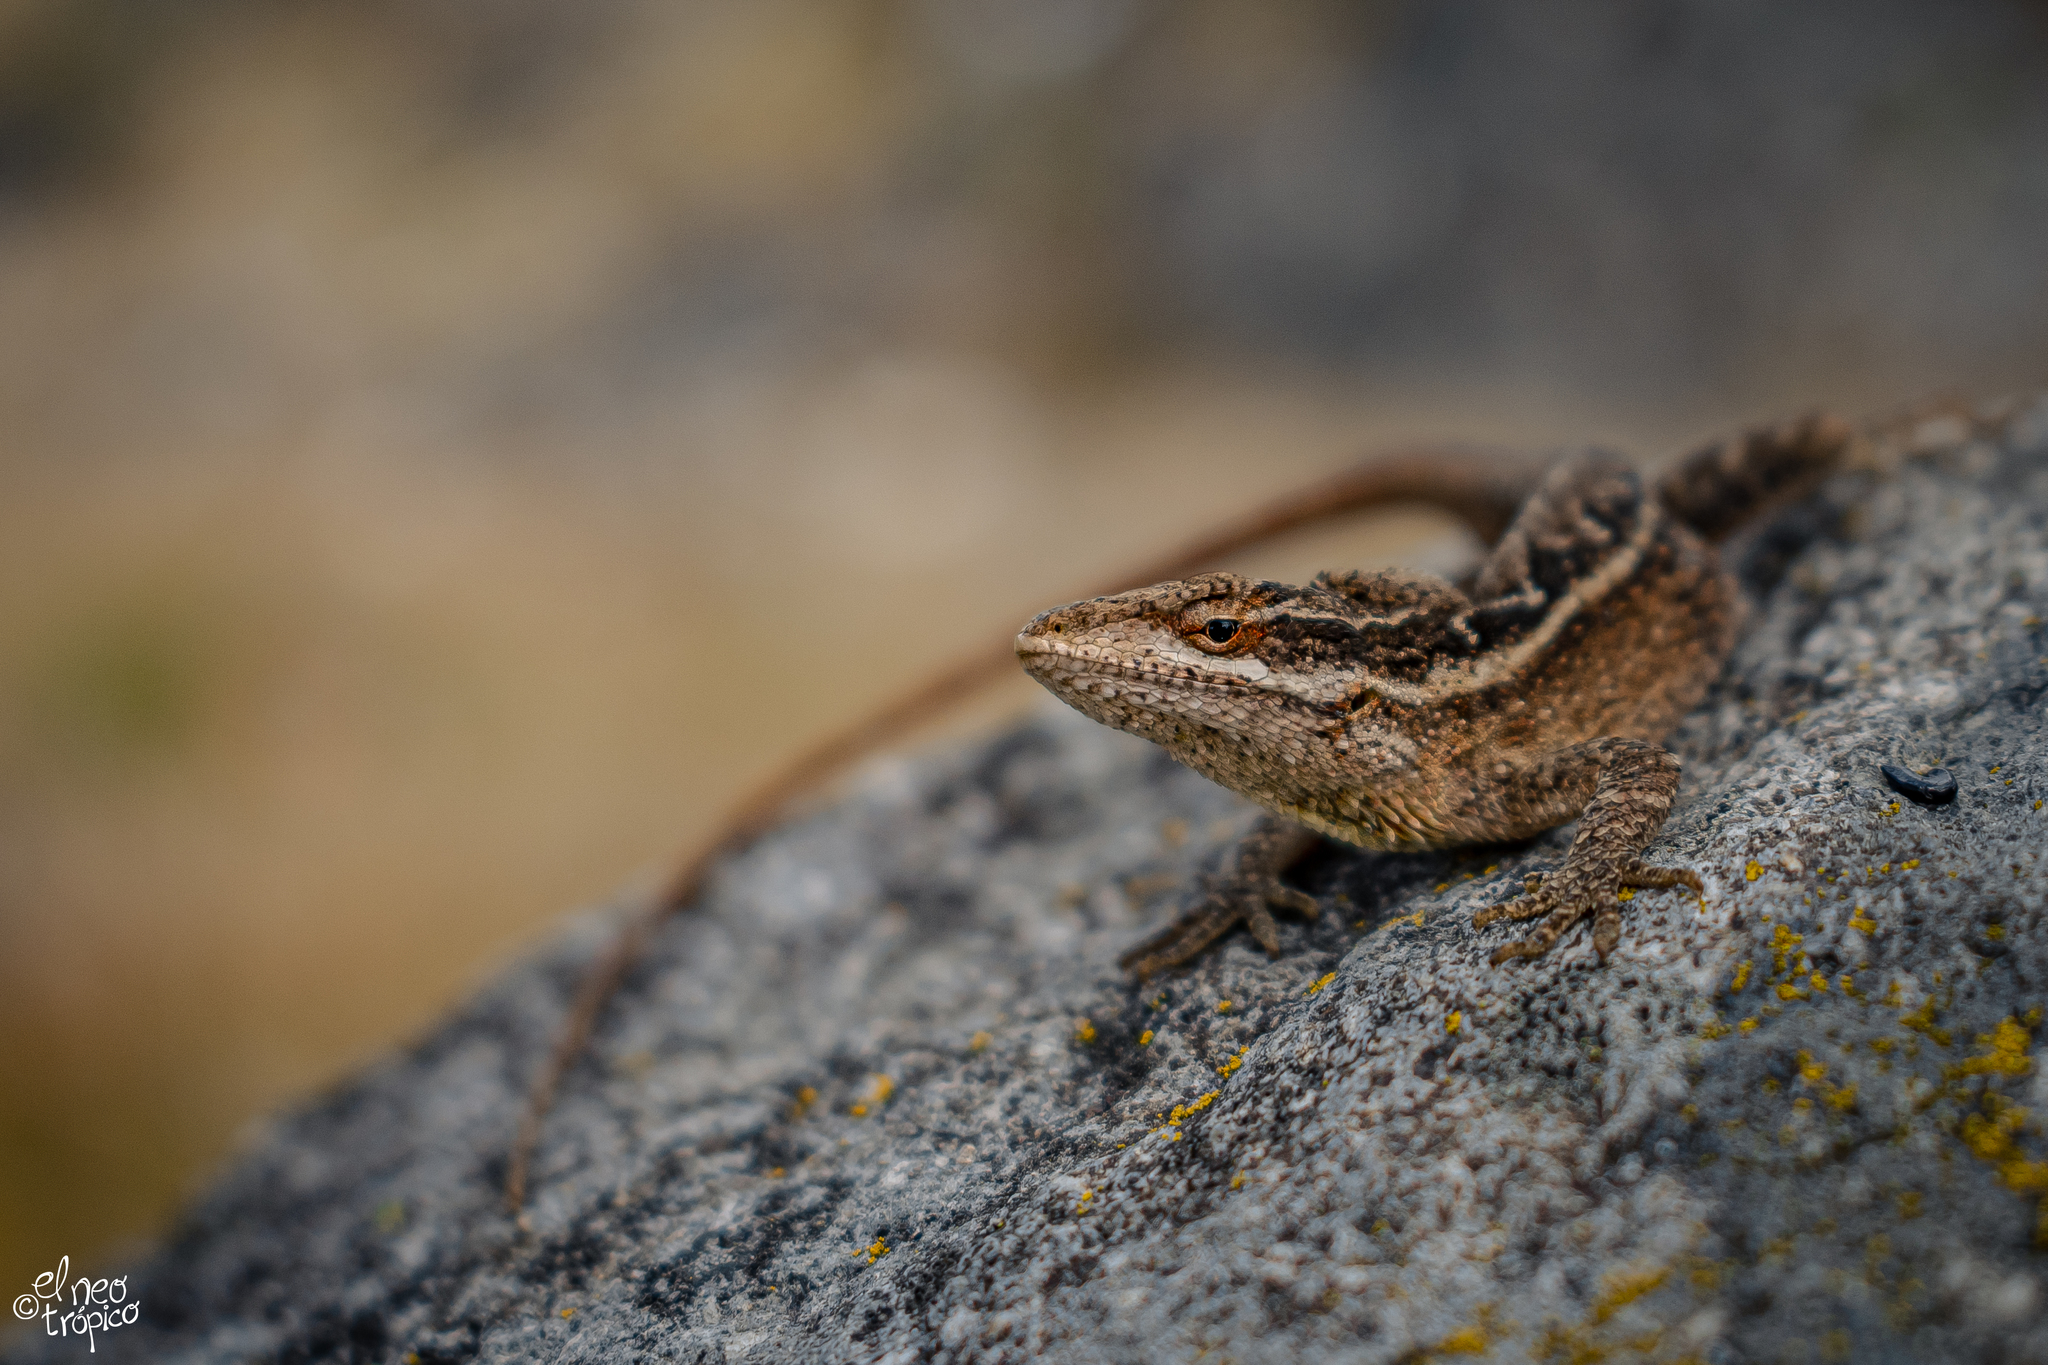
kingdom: Animalia
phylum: Chordata
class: Squamata
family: Dactyloidae
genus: Anolis
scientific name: Anolis anisolepis
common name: Chiapas ornate anole
